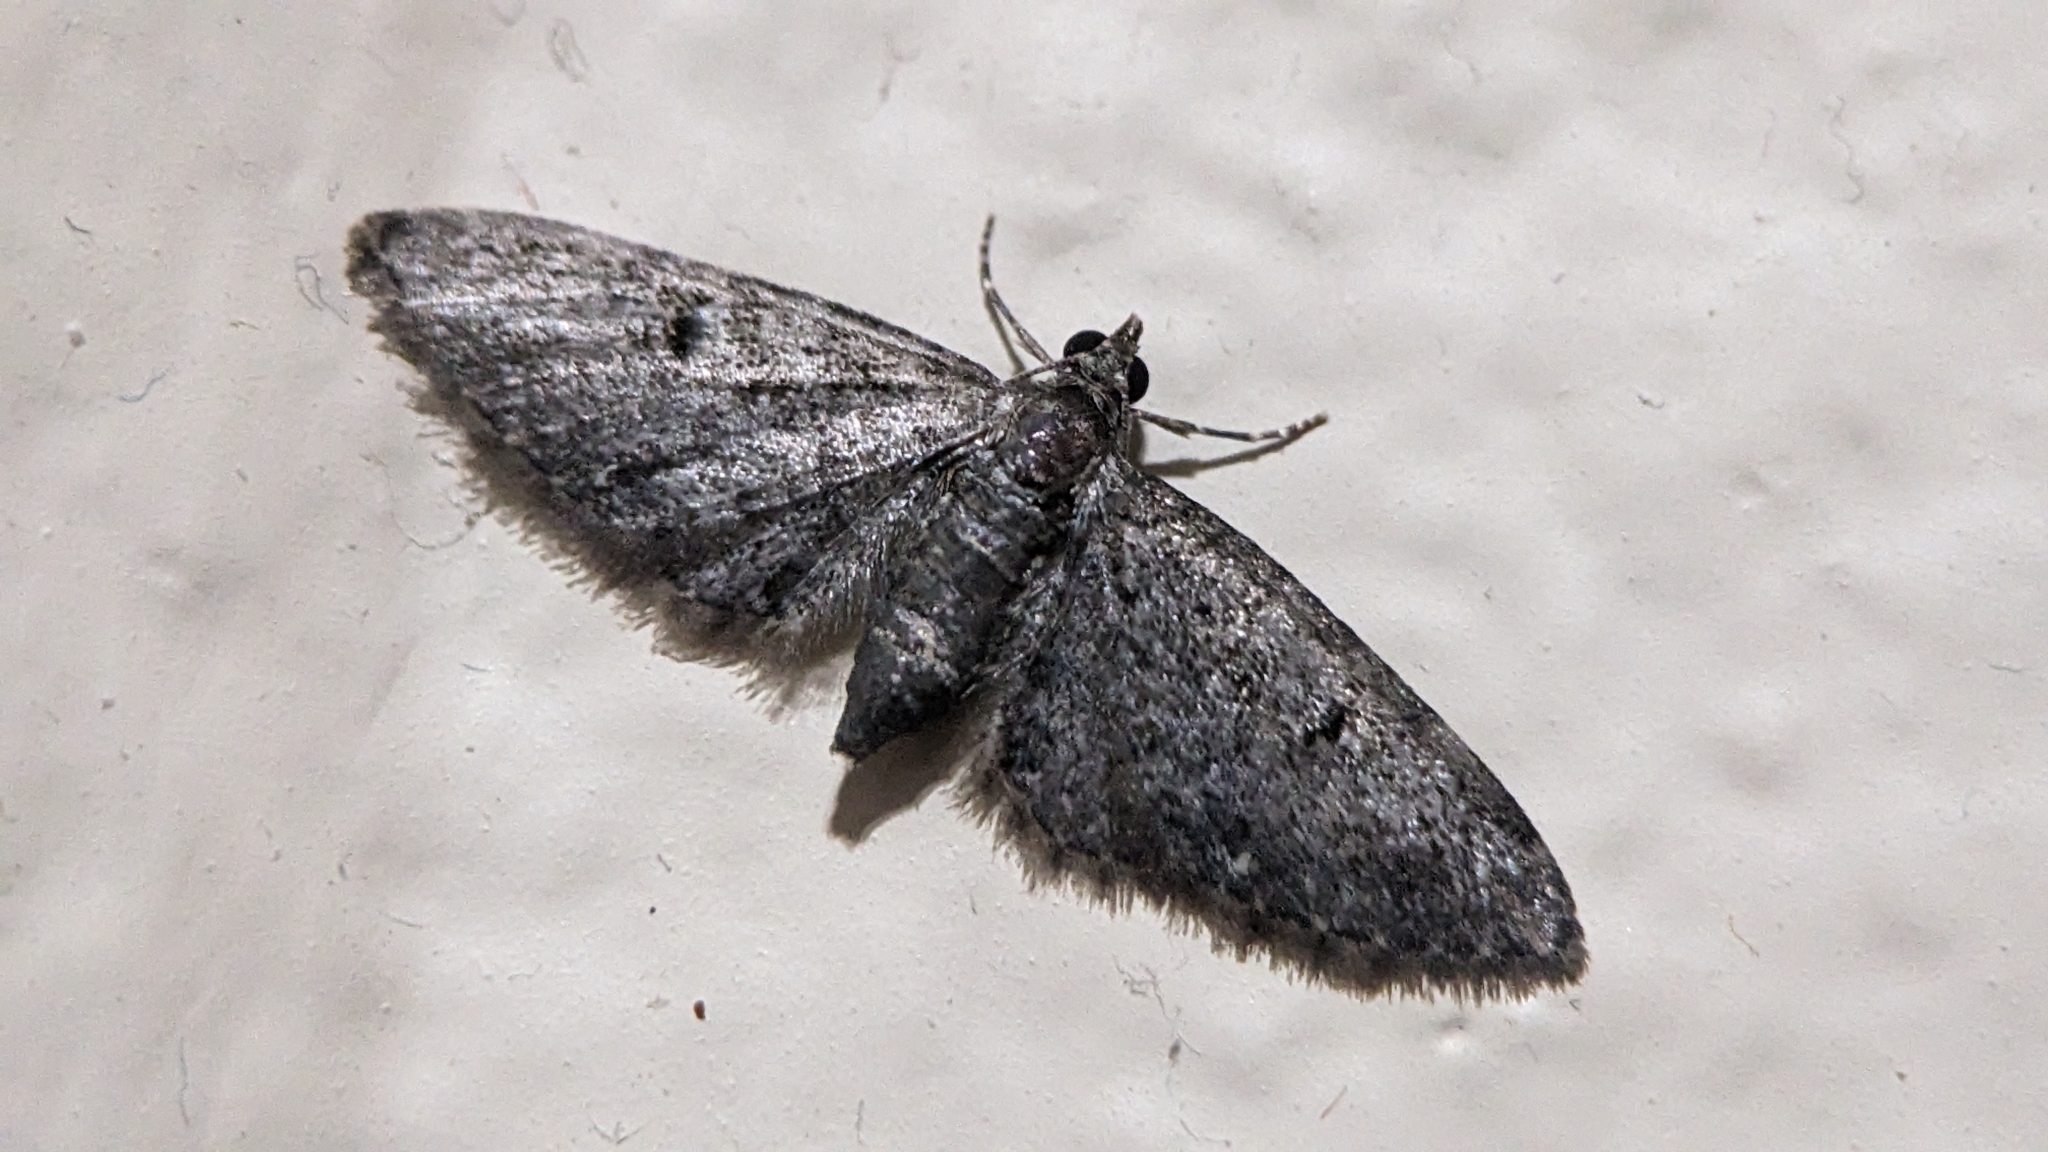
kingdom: Animalia
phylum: Arthropoda
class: Insecta
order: Lepidoptera
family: Geometridae
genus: Eupithecia
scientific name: Eupithecia miserulata
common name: Common eupithecia
